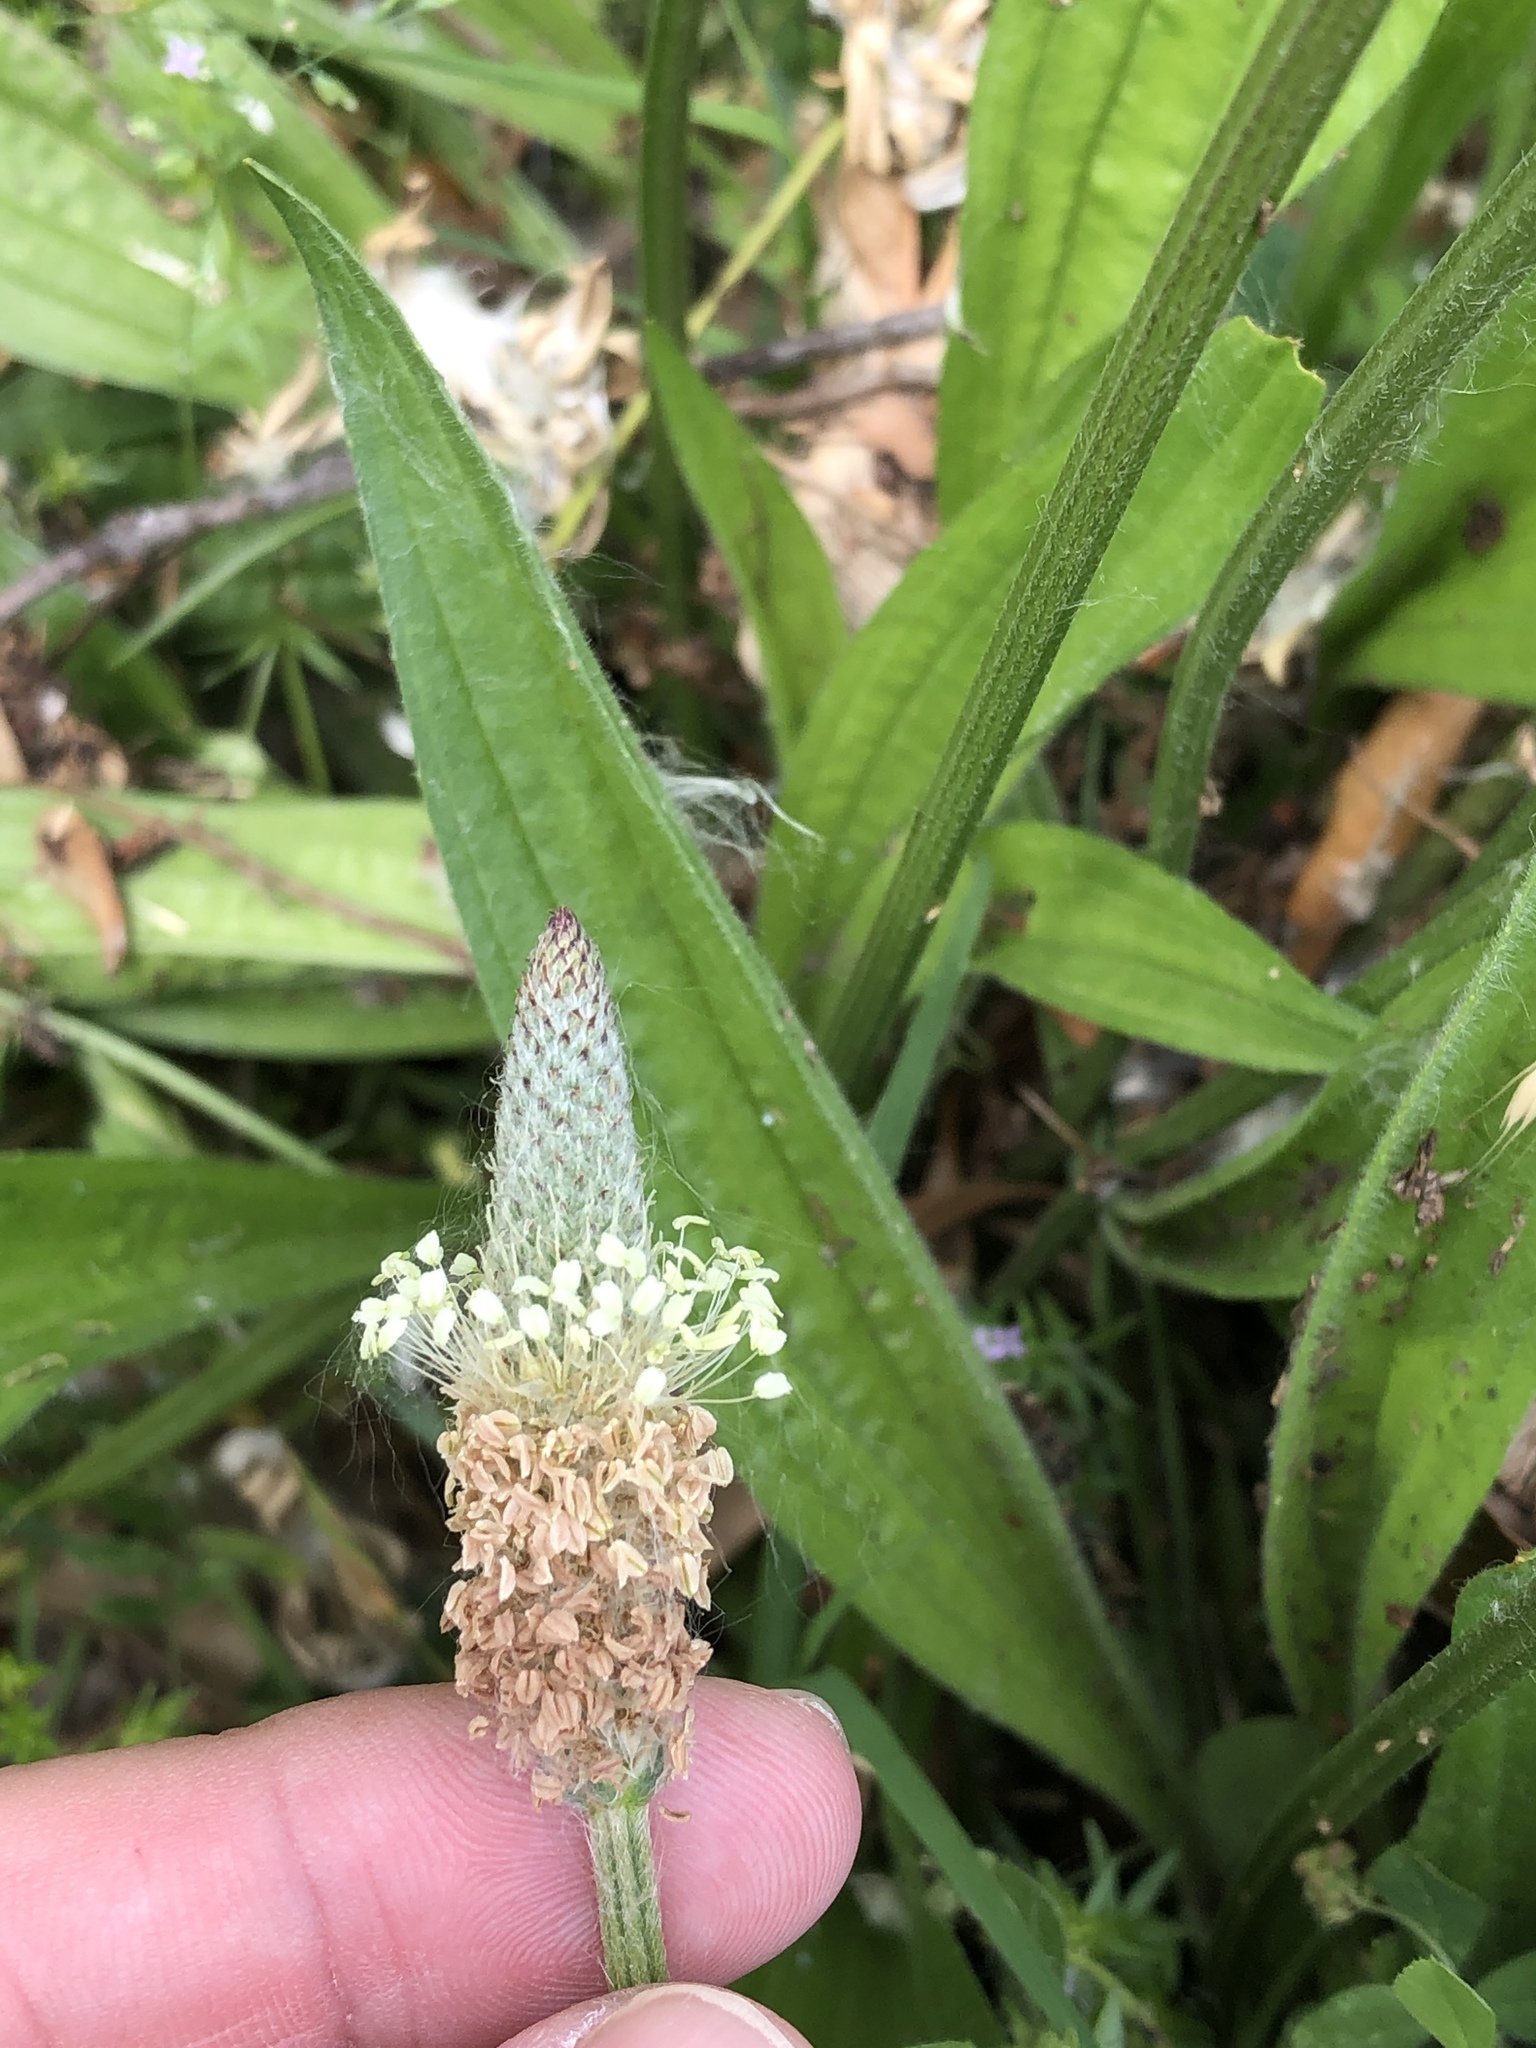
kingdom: Plantae
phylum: Tracheophyta
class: Magnoliopsida
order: Lamiales
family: Plantaginaceae
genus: Plantago
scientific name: Plantago lanceolata
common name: Ribwort plantain
